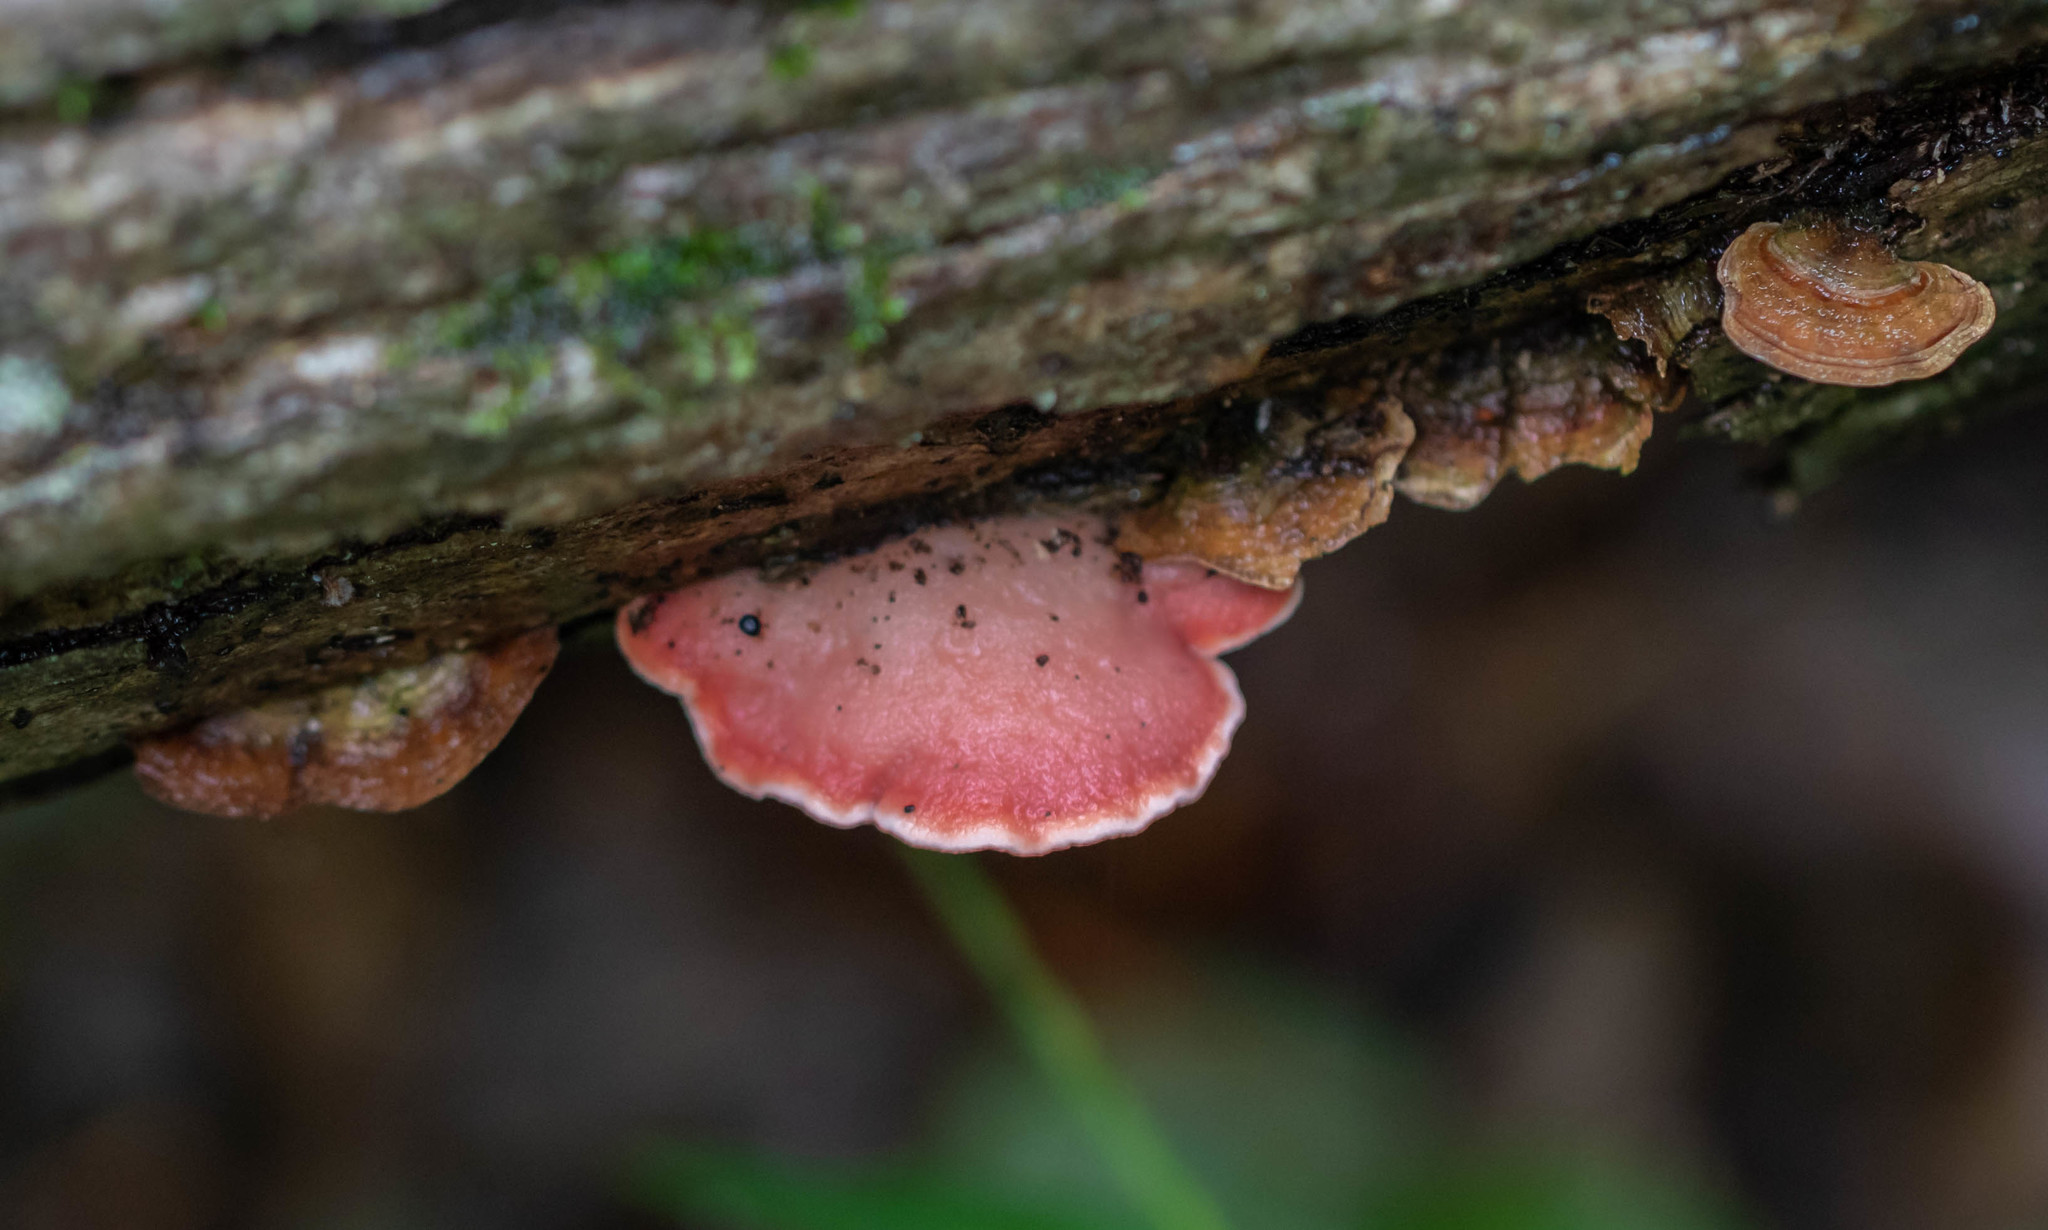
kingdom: Fungi
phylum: Basidiomycota
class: Agaricomycetes
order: Polyporales
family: Irpicaceae
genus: Byssomerulius
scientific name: Byssomerulius incarnatus
